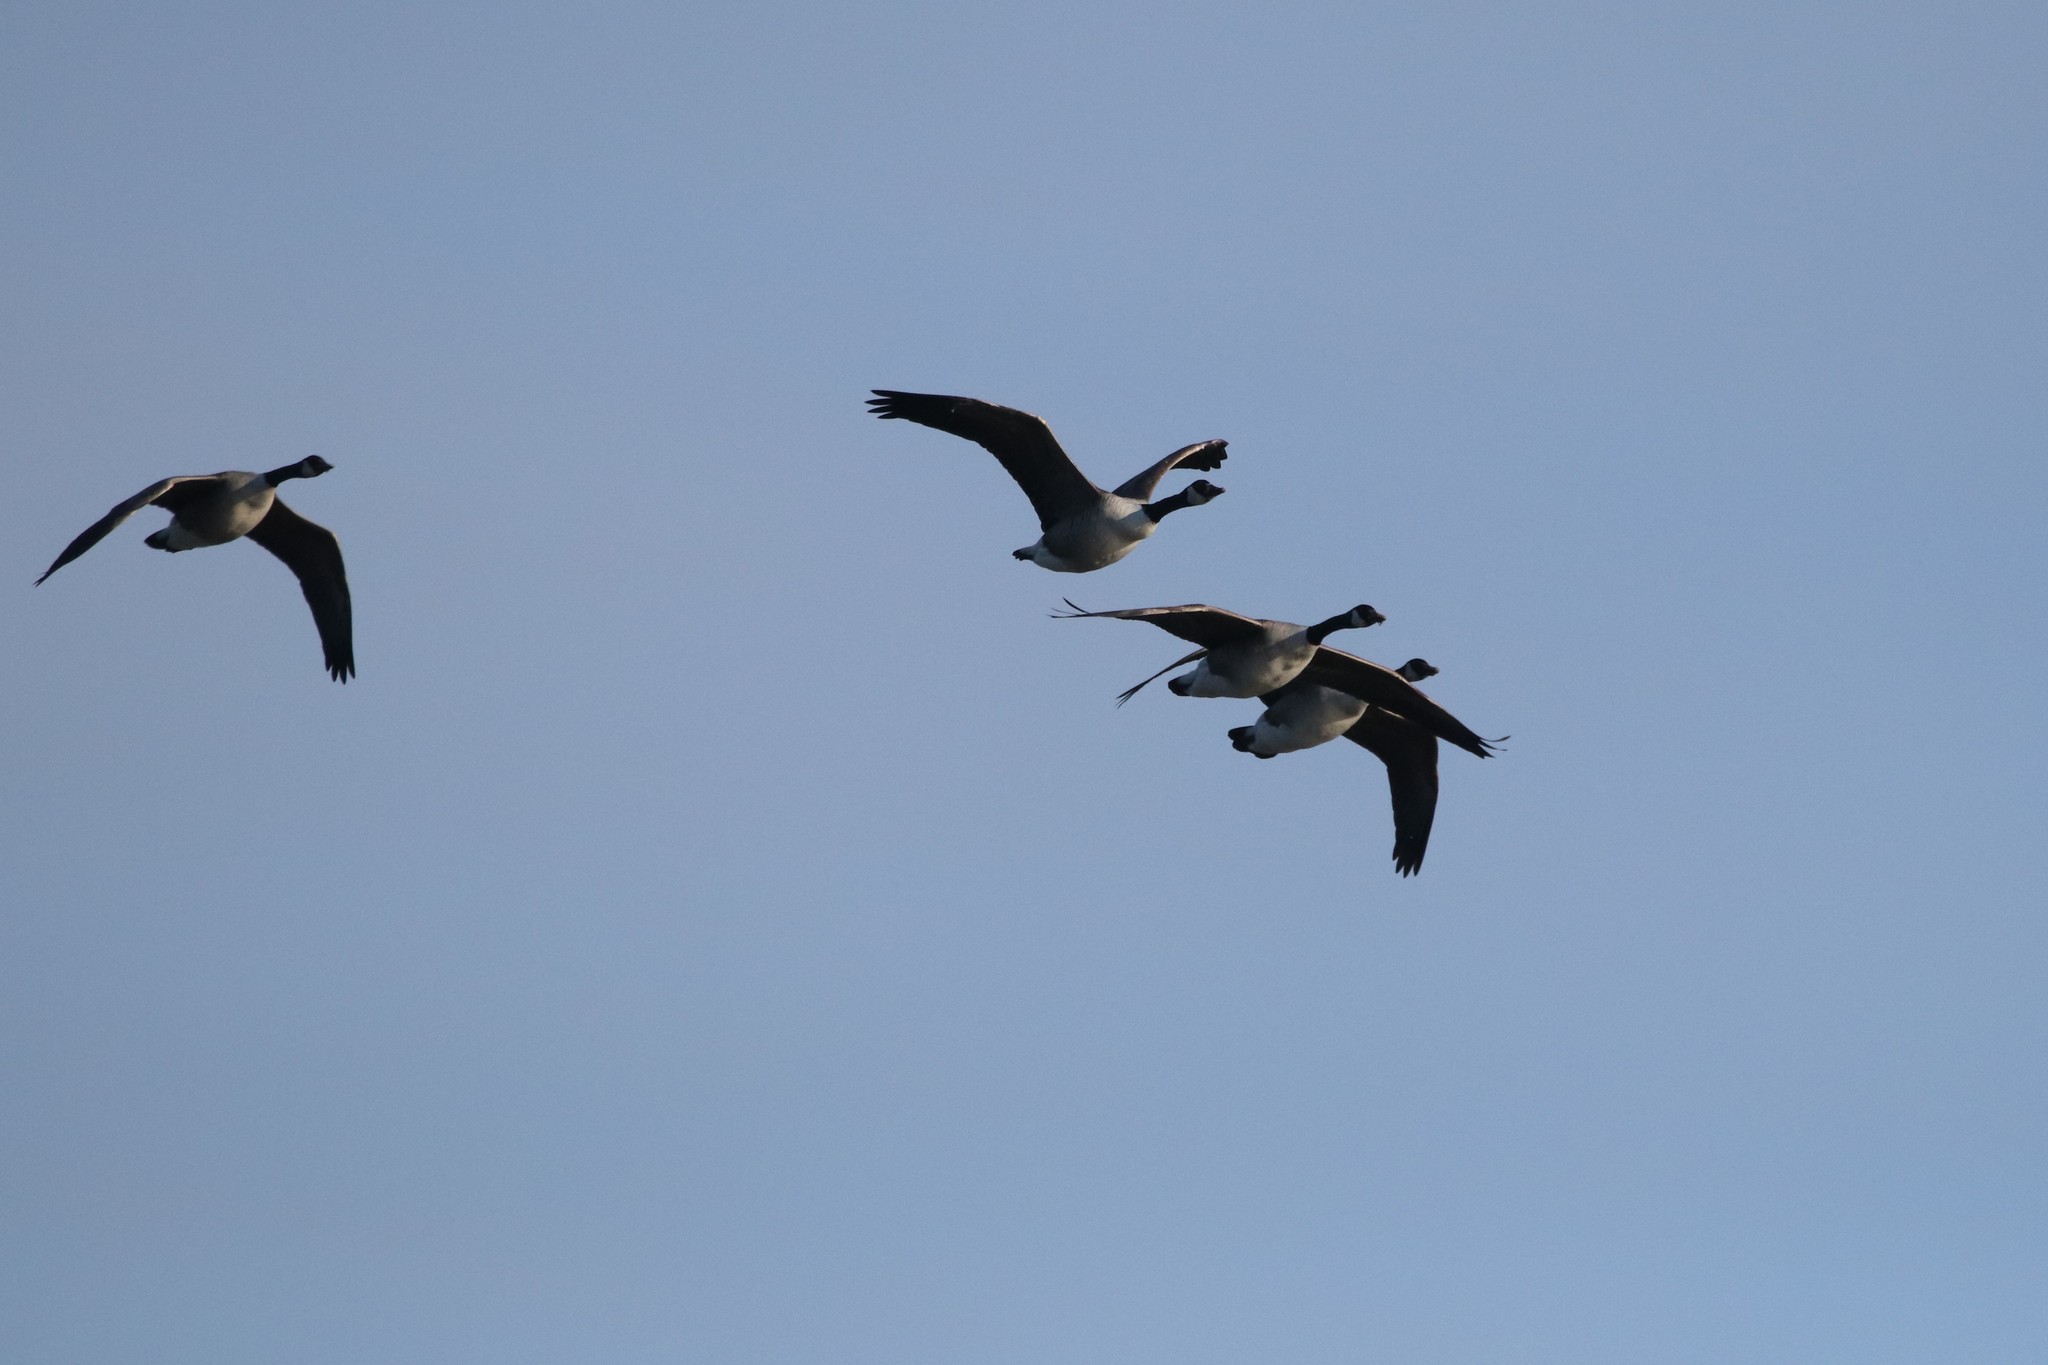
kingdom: Animalia
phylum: Chordata
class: Aves
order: Anseriformes
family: Anatidae
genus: Branta
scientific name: Branta canadensis
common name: Canada goose
